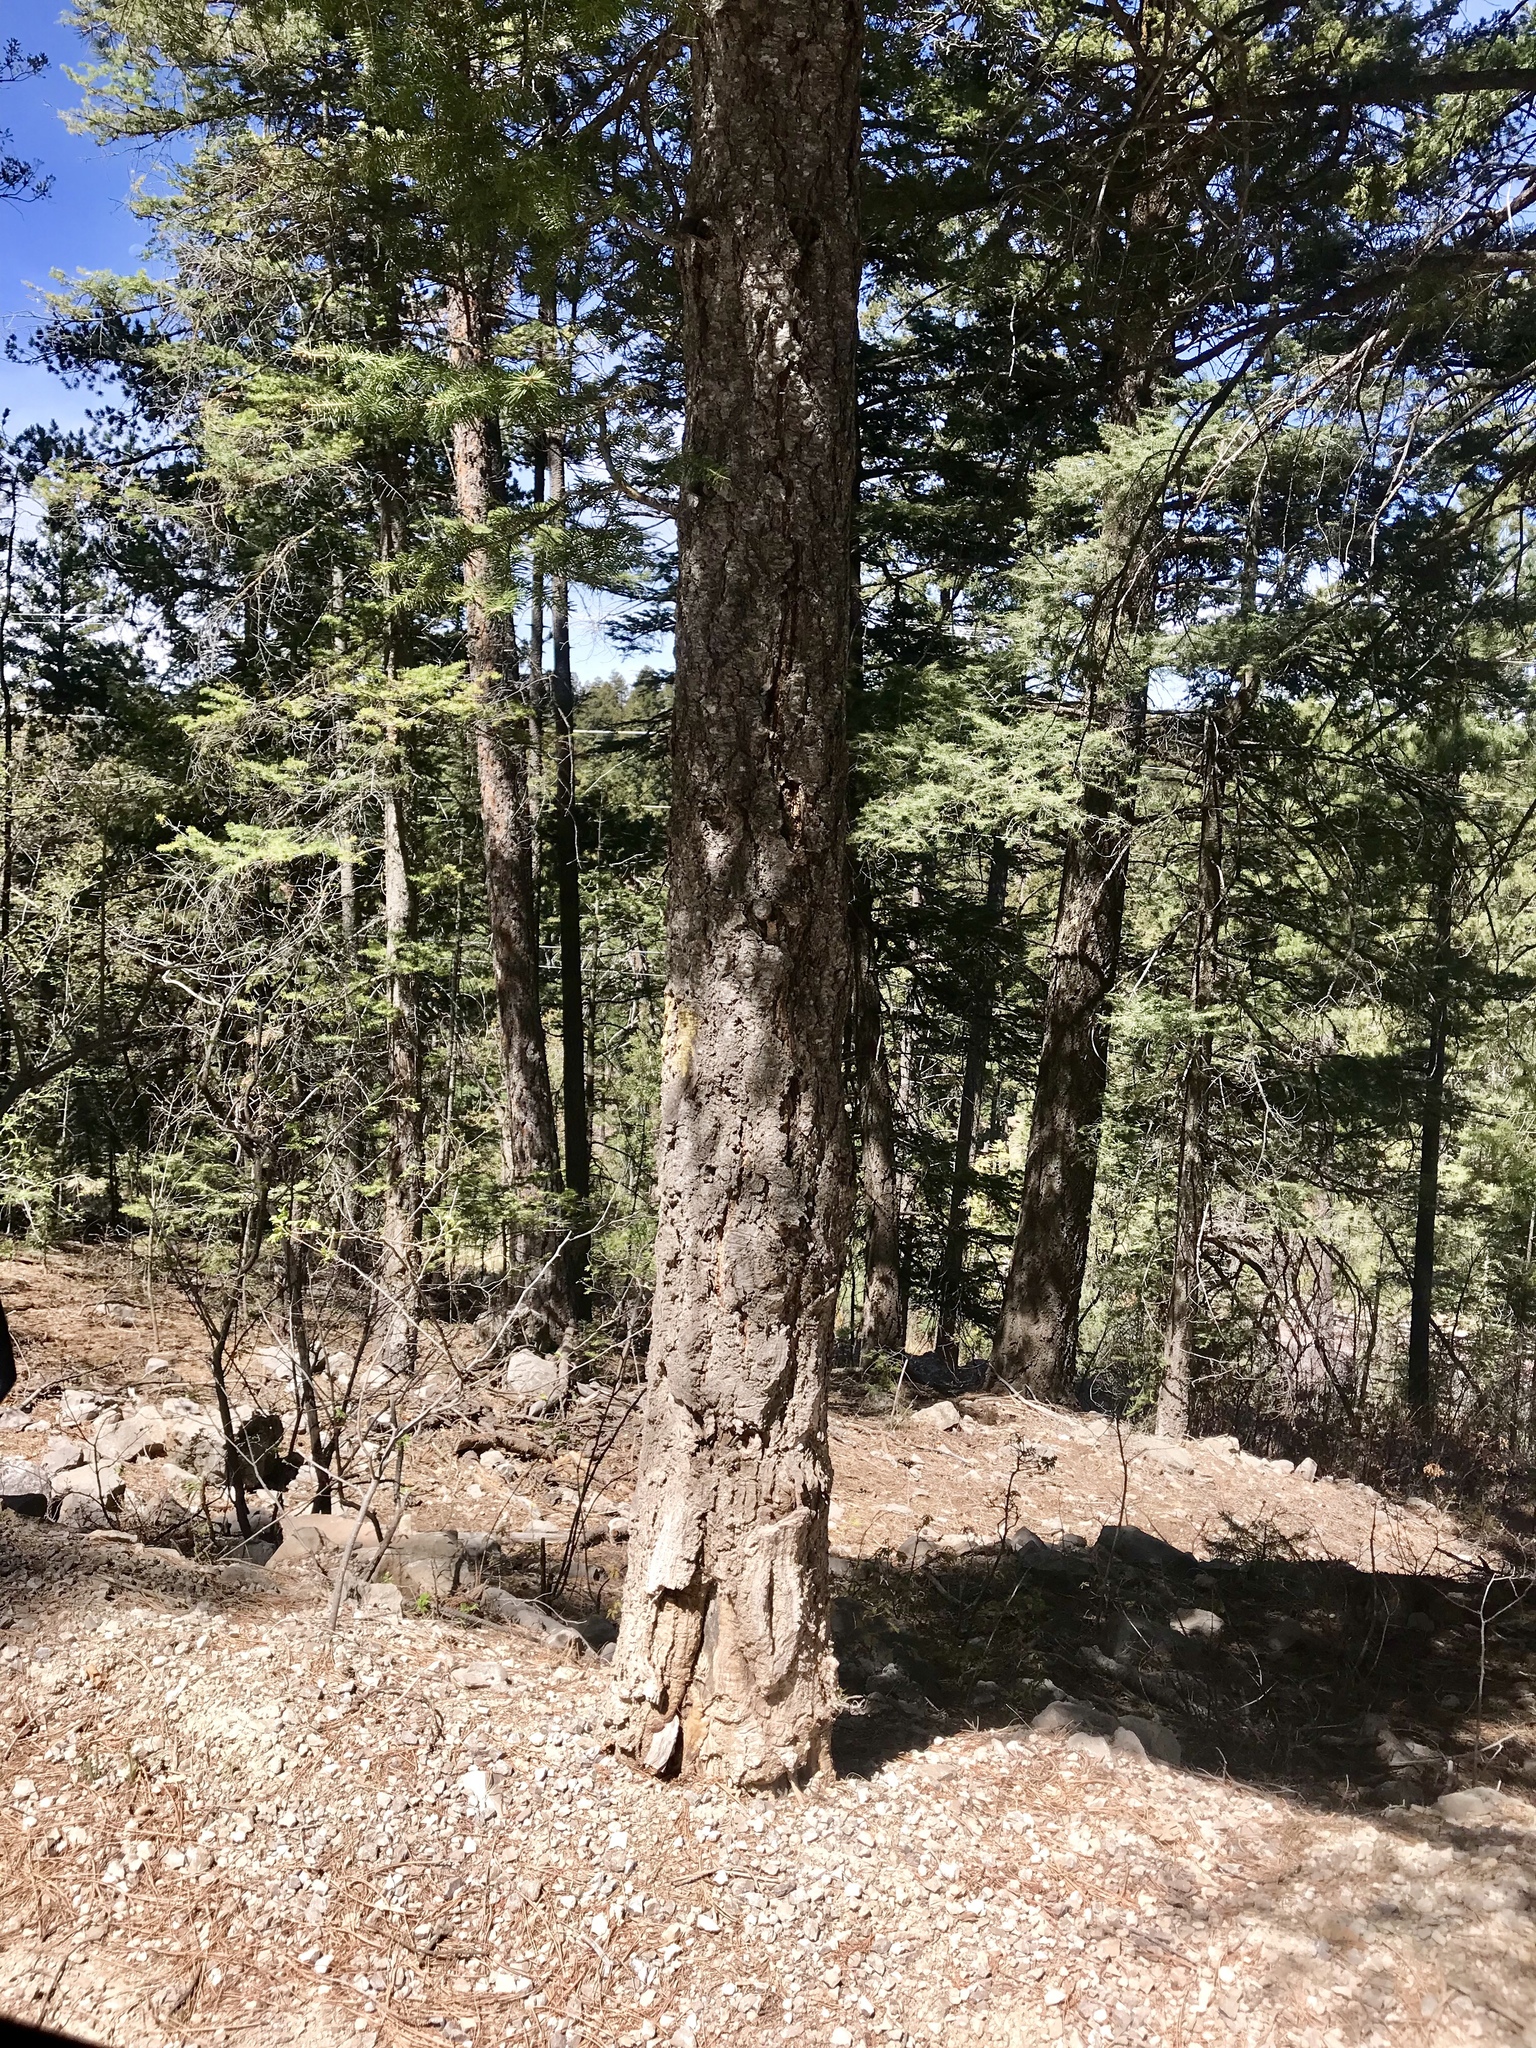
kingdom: Plantae
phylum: Tracheophyta
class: Pinopsida
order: Pinales
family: Pinaceae
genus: Pseudotsuga
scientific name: Pseudotsuga menziesii
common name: Douglas fir
